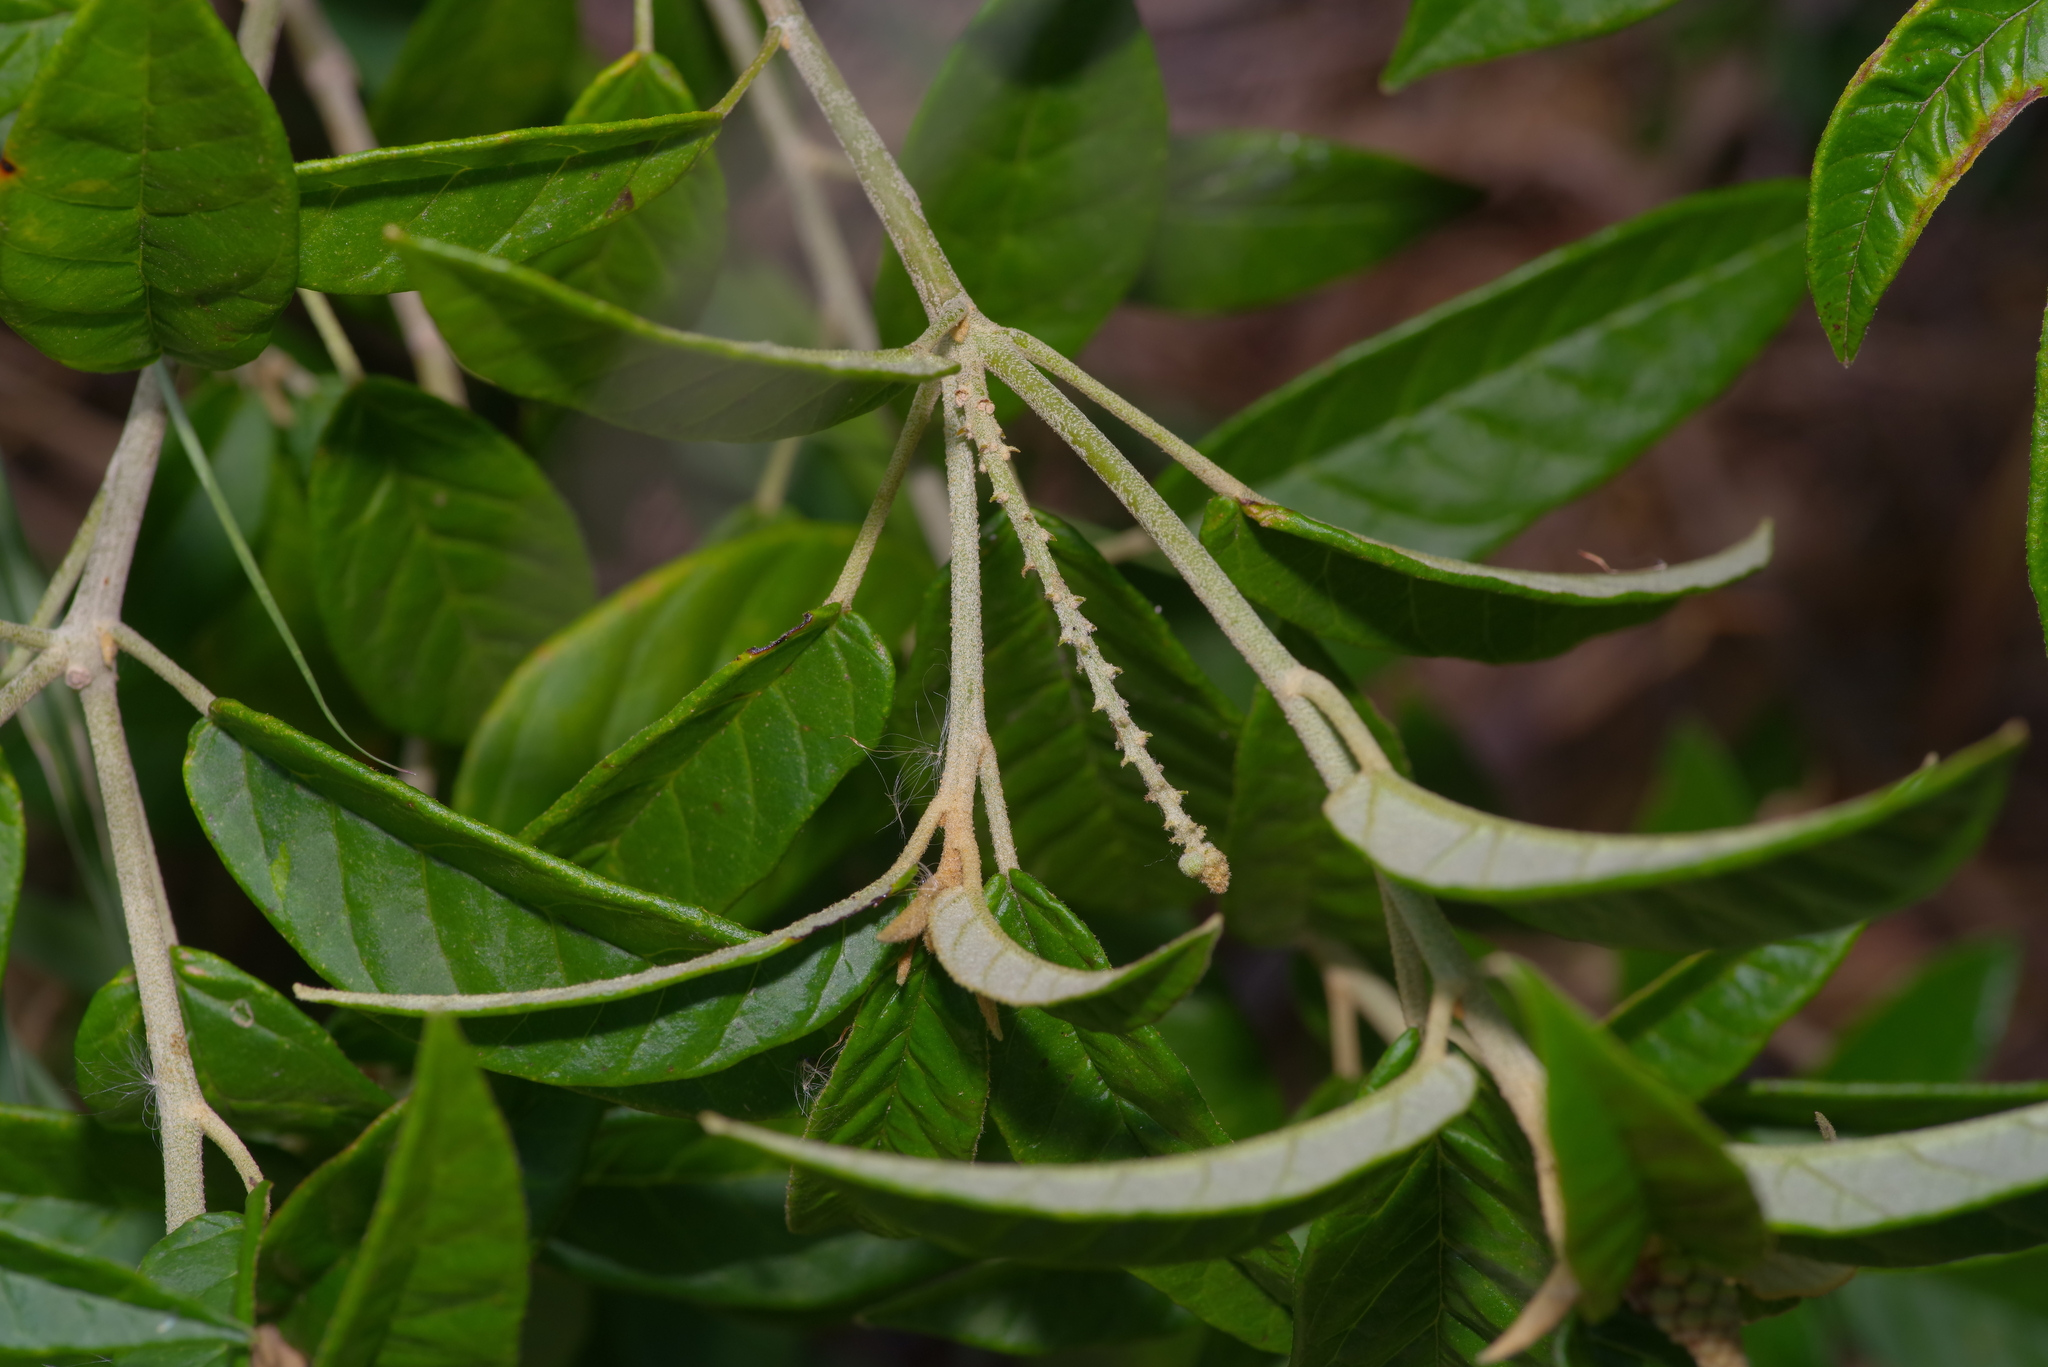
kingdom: Plantae
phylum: Tracheophyta
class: Magnoliopsida
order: Malpighiales
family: Euphorbiaceae
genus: Croton
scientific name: Croton cortesianus
